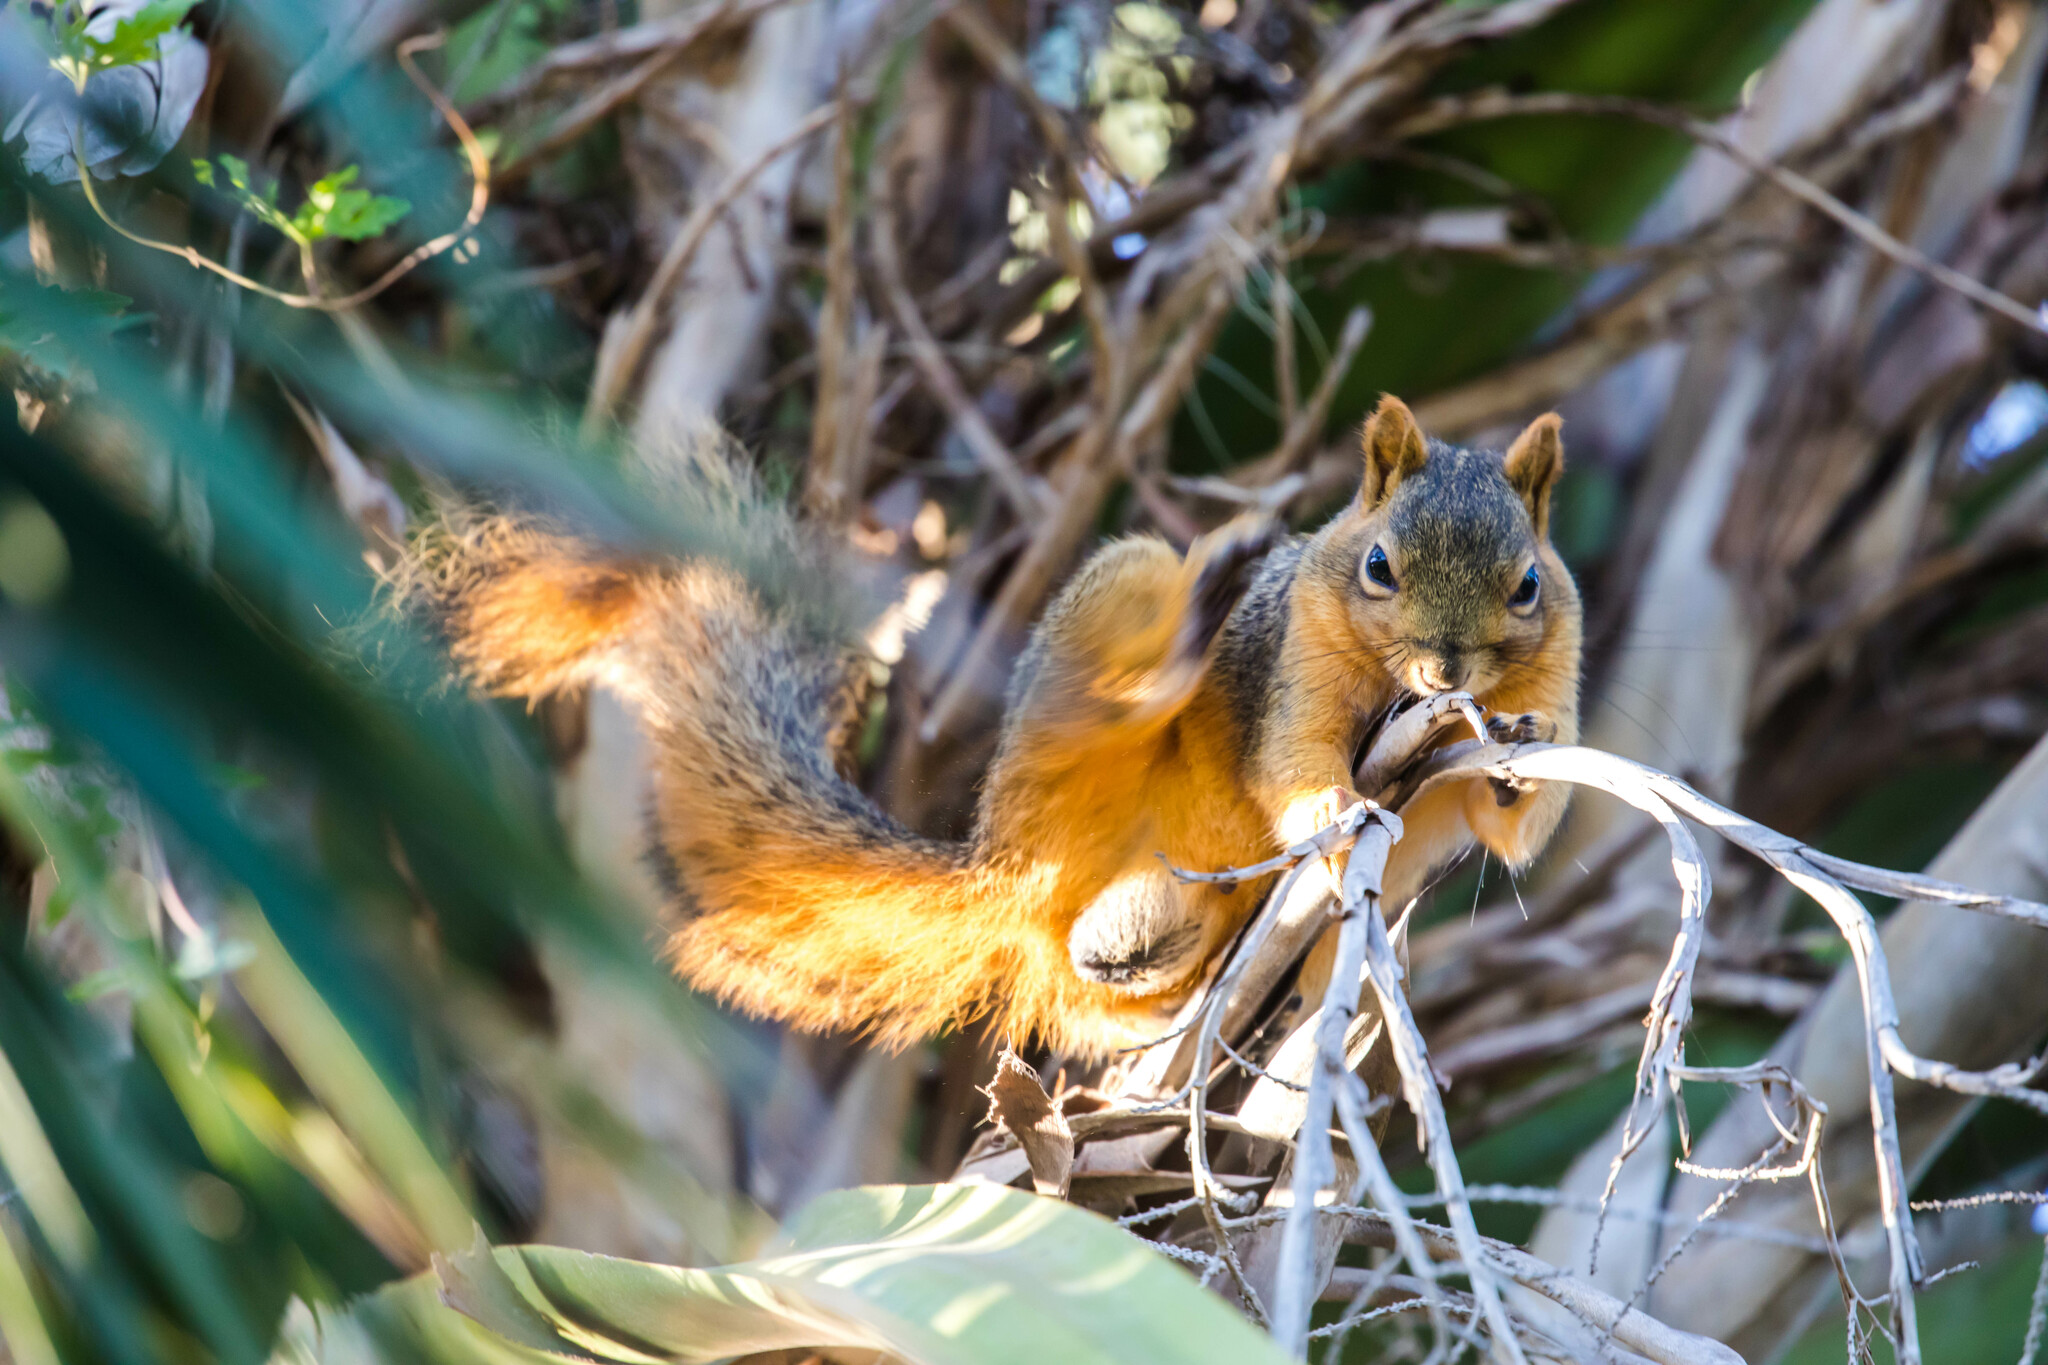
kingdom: Animalia
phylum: Chordata
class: Mammalia
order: Rodentia
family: Sciuridae
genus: Sciurus
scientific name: Sciurus niger
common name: Fox squirrel
